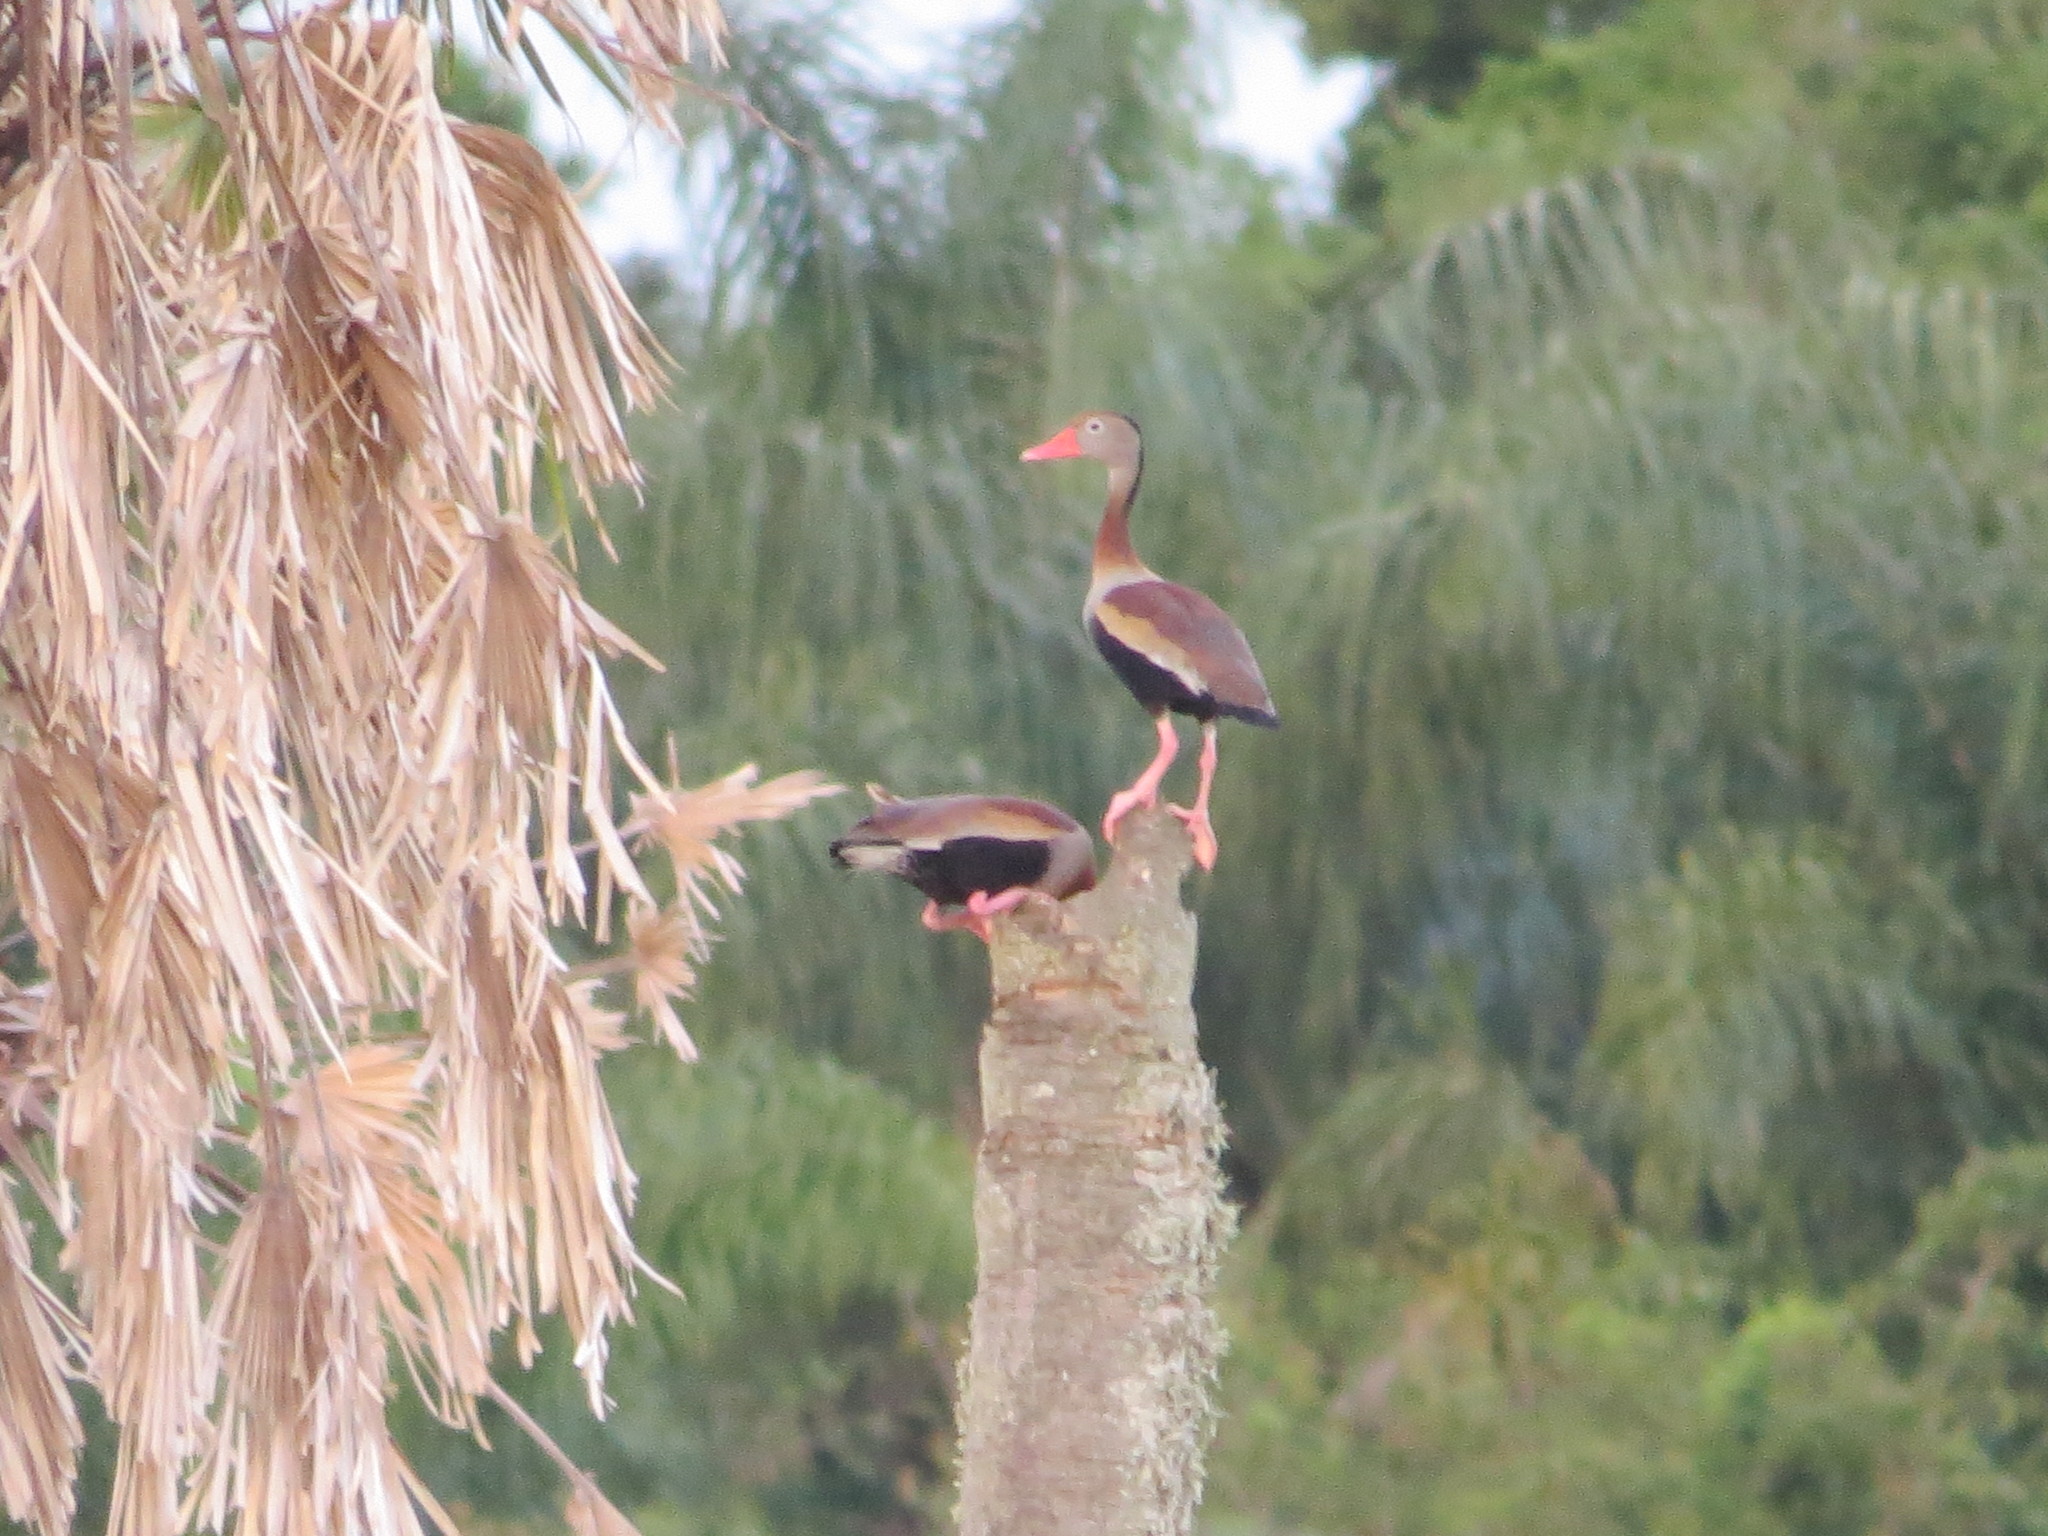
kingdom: Animalia
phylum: Chordata
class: Aves
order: Anseriformes
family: Anatidae
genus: Dendrocygna
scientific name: Dendrocygna autumnalis
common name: Black-bellied whistling duck
